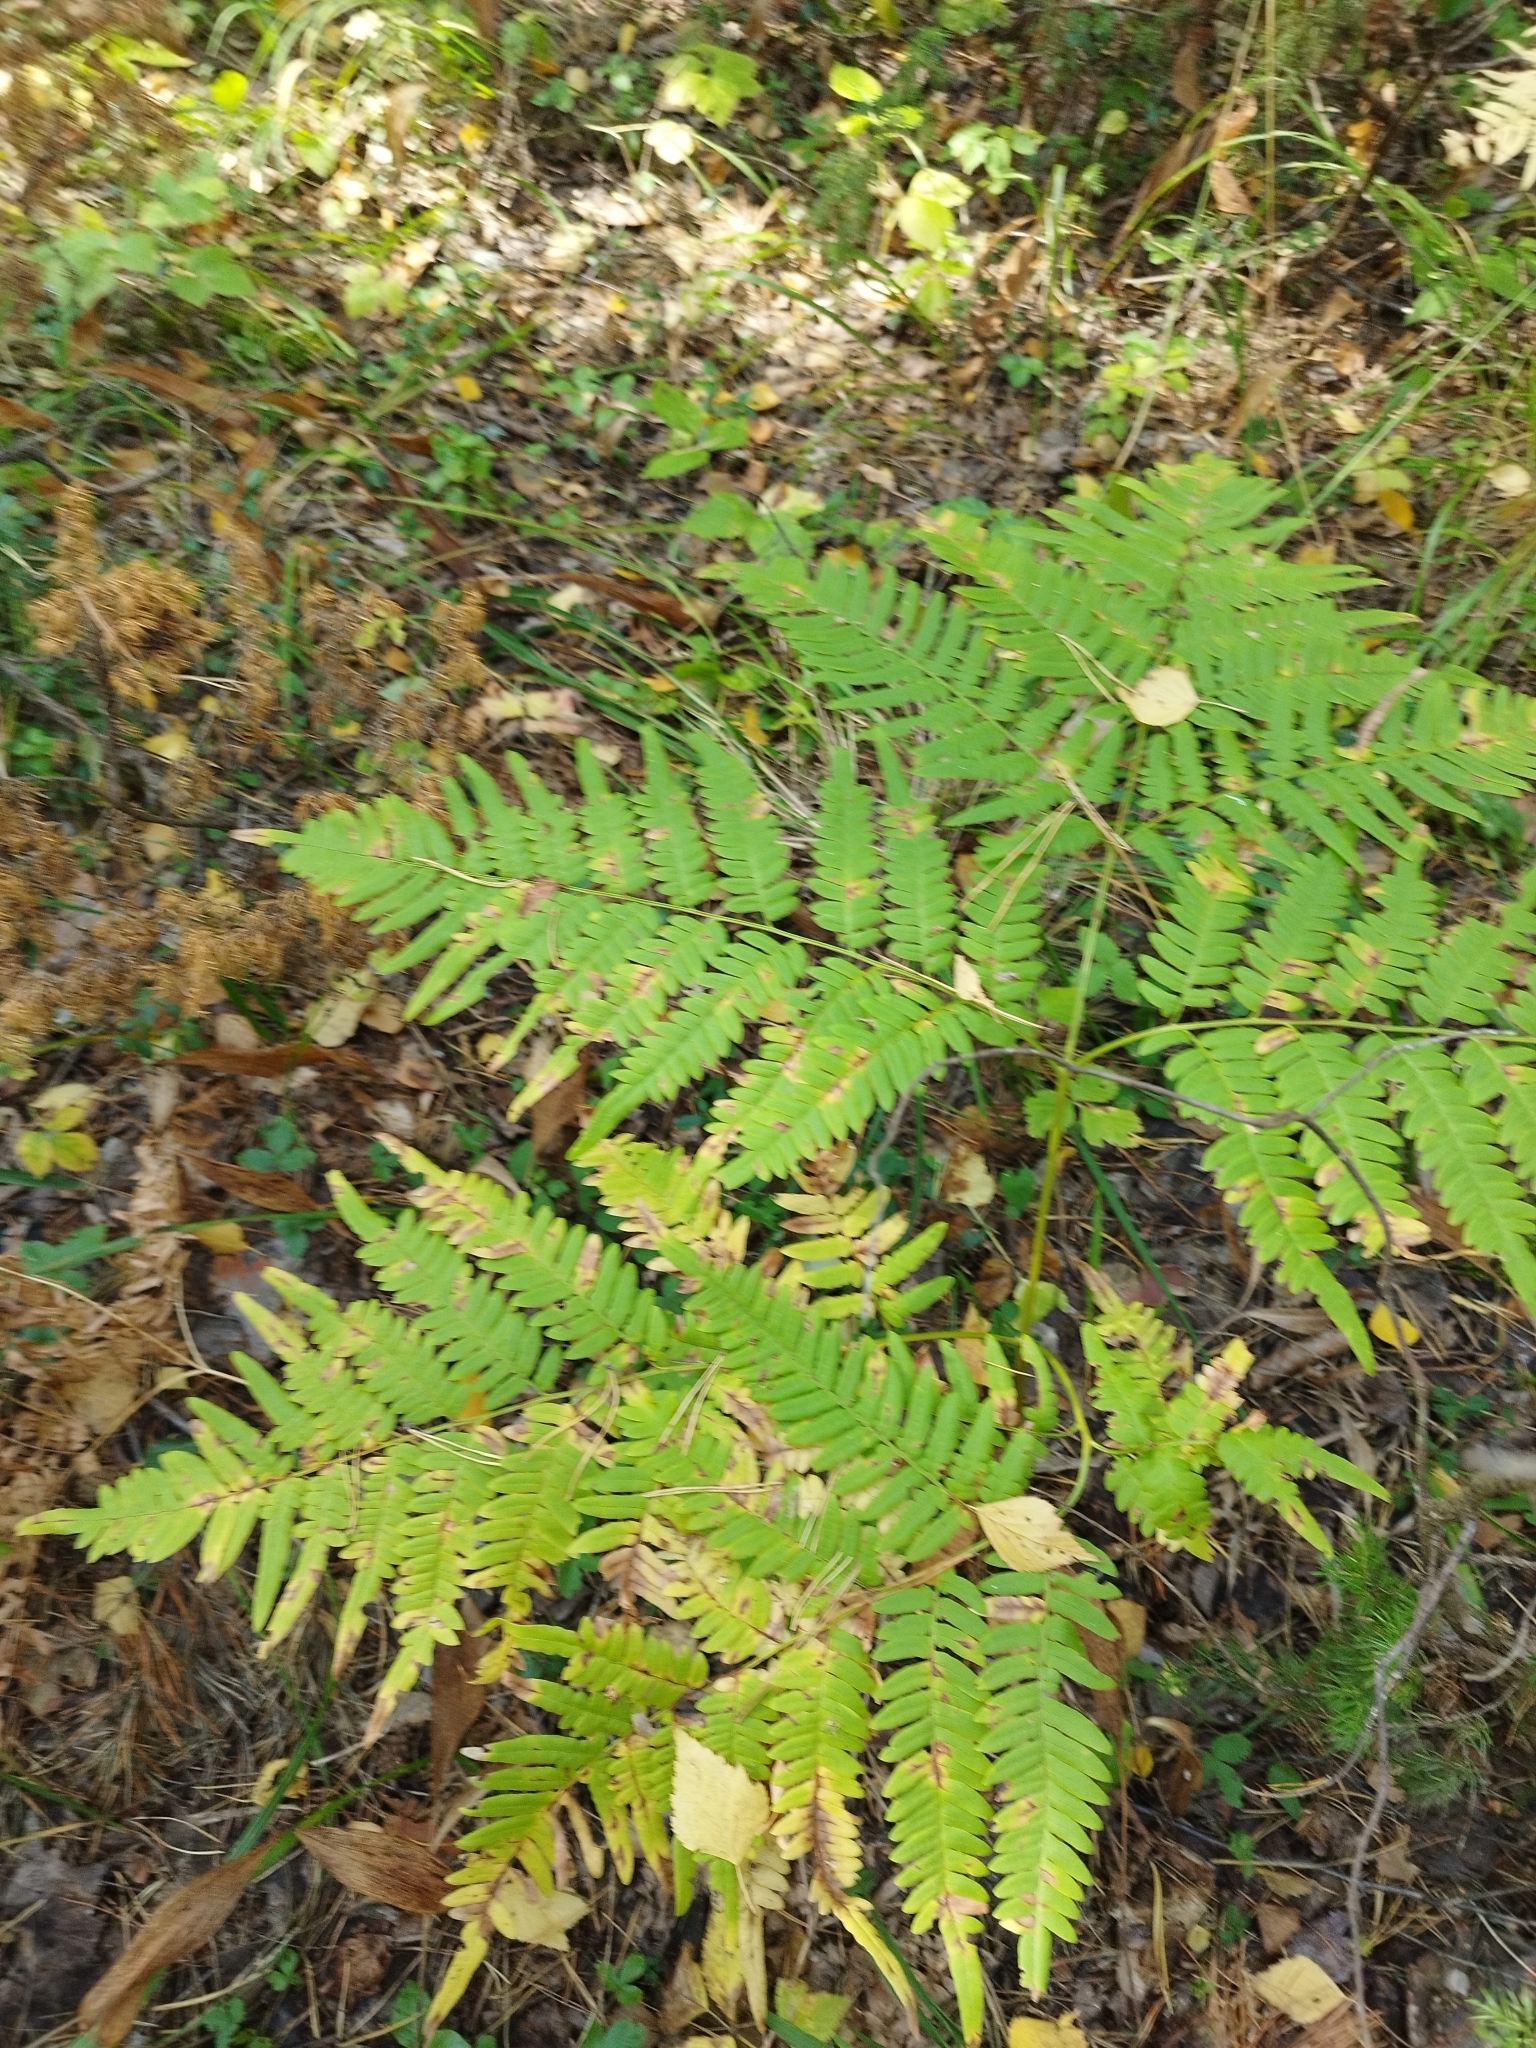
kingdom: Plantae
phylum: Tracheophyta
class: Polypodiopsida
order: Polypodiales
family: Dennstaedtiaceae
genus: Pteridium
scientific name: Pteridium aquilinum
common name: Bracken
